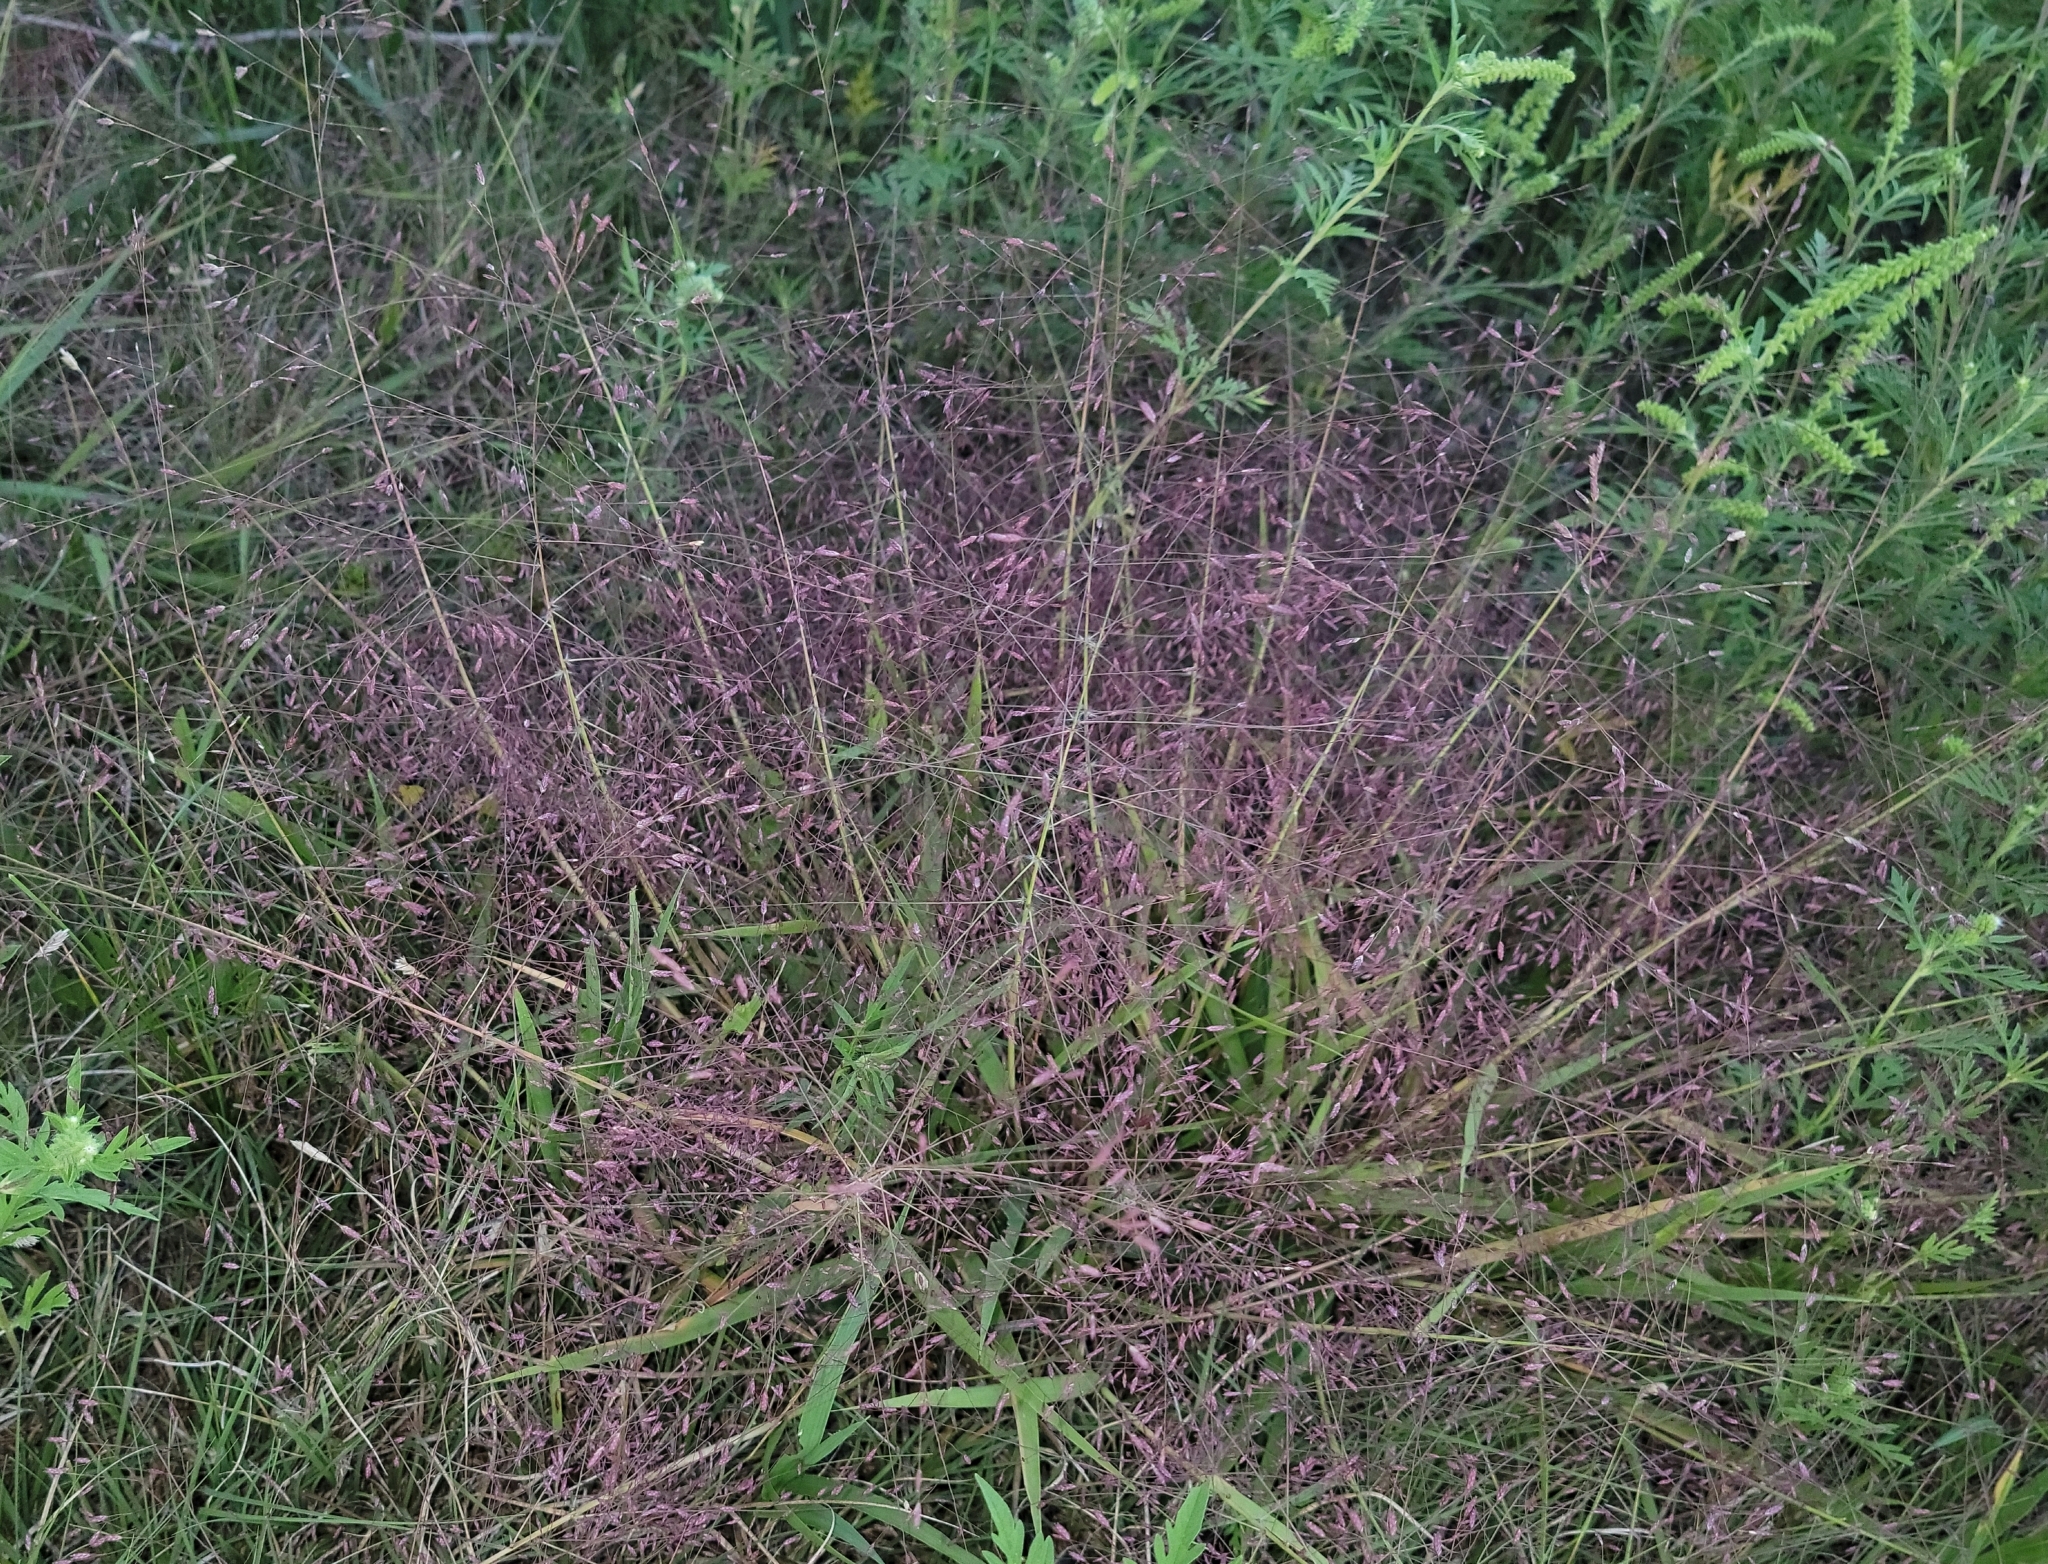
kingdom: Plantae
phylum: Tracheophyta
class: Liliopsida
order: Poales
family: Poaceae
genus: Eragrostis
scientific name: Eragrostis spectabilis
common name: Petticoat-climber
